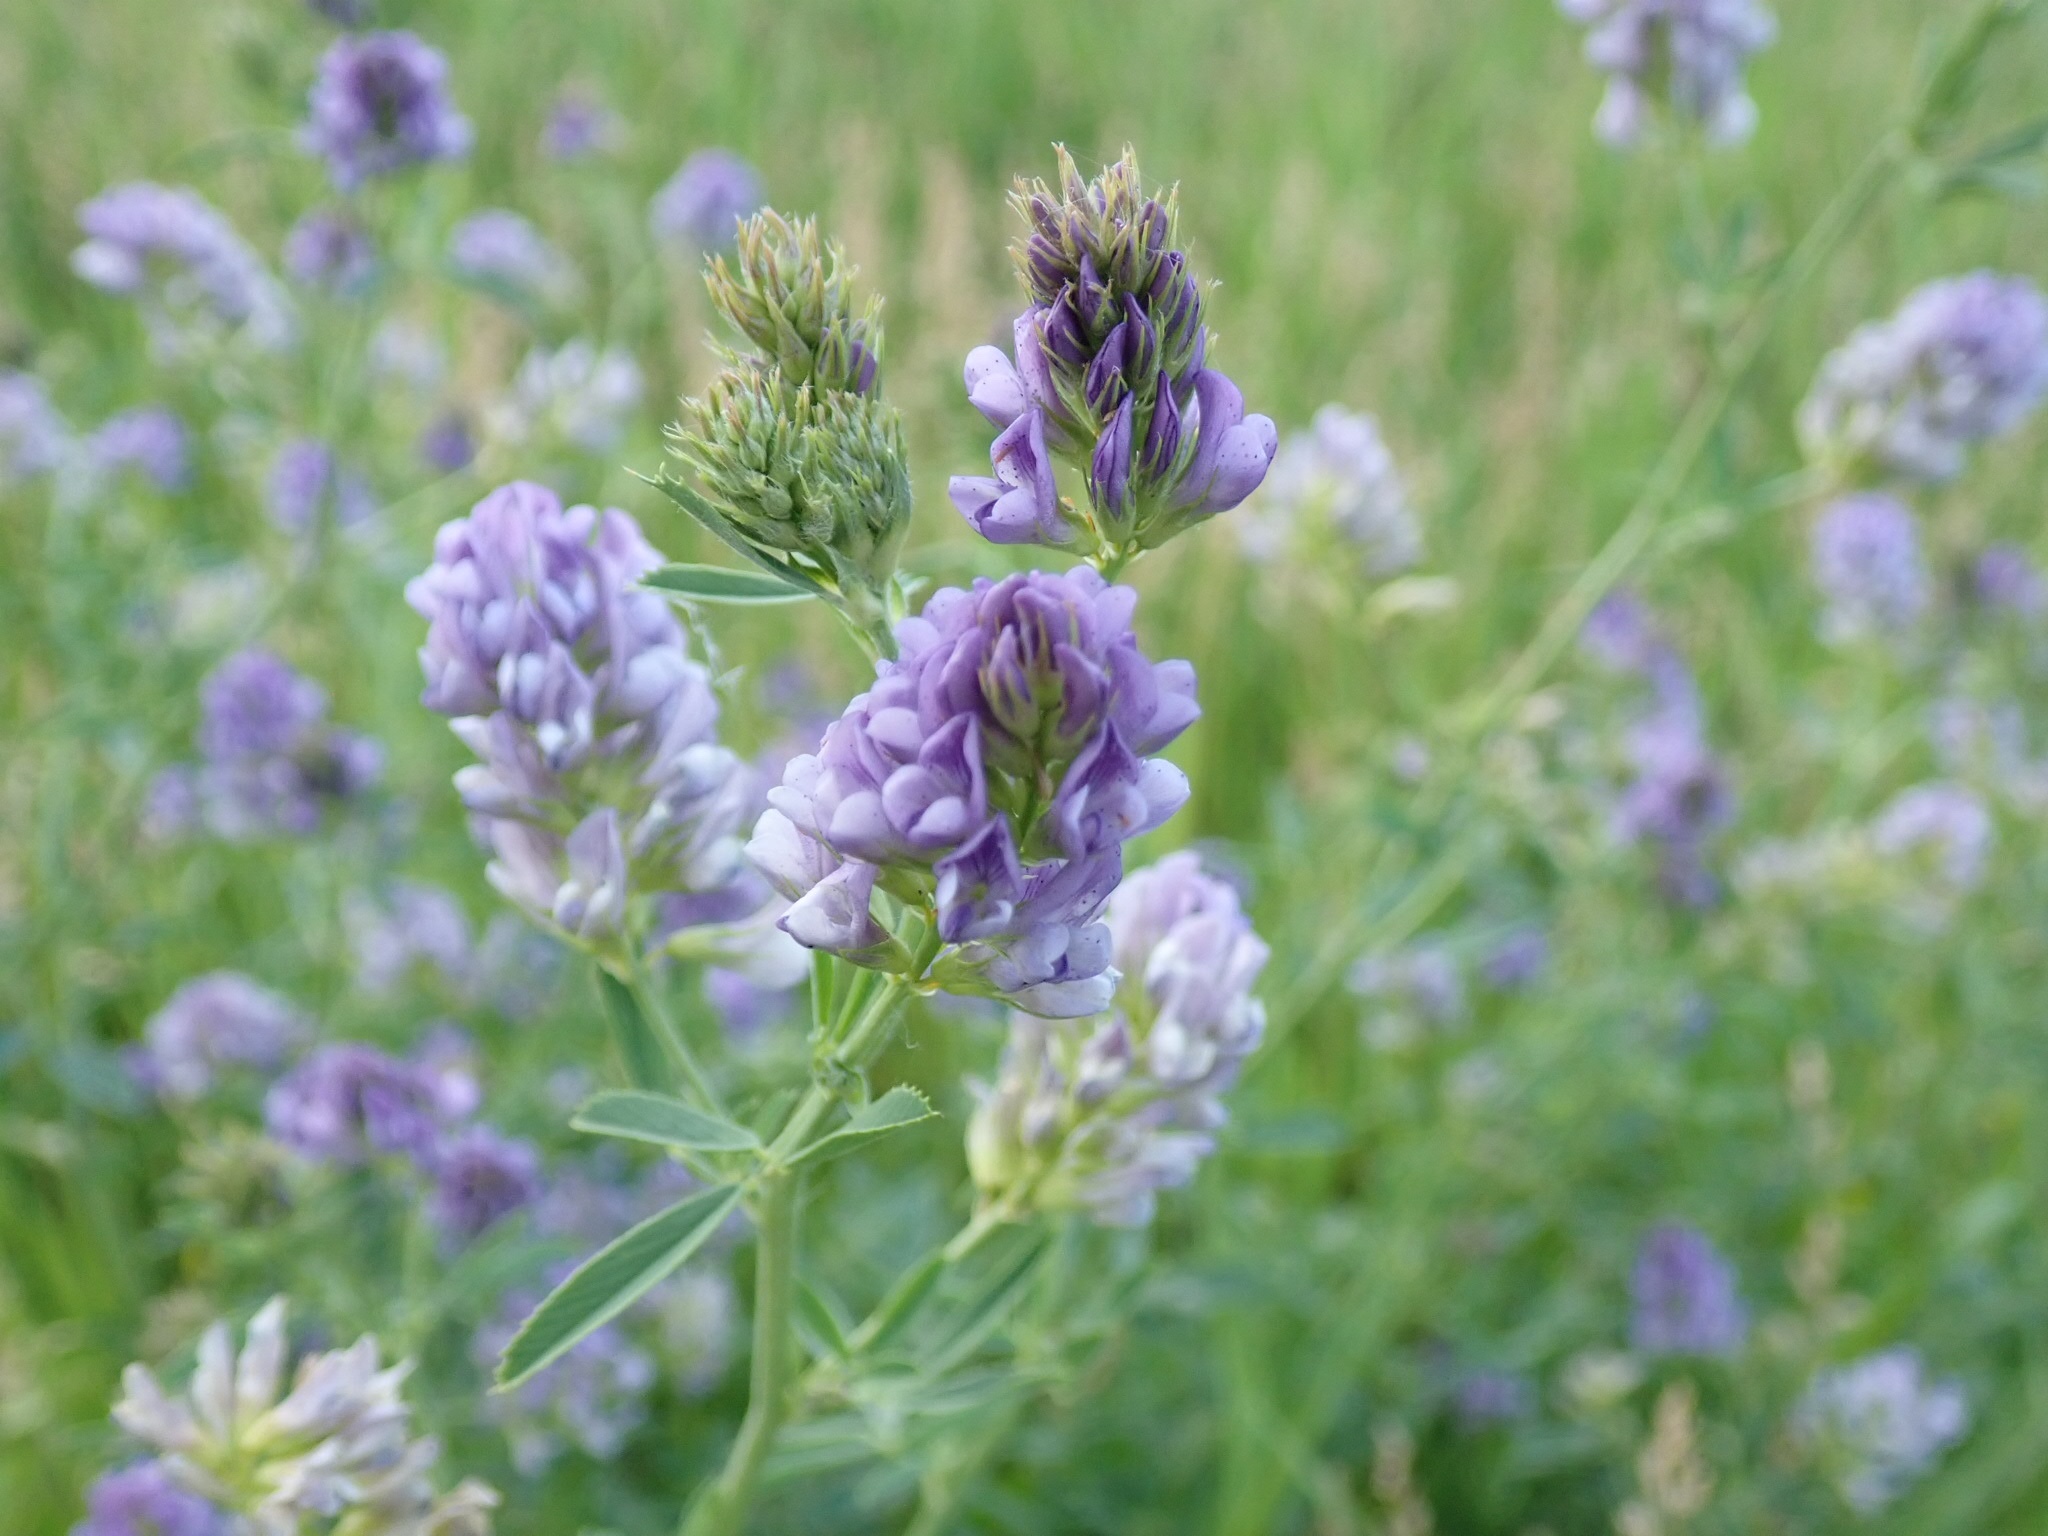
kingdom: Plantae
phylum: Tracheophyta
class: Magnoliopsida
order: Fabales
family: Fabaceae
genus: Medicago
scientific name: Medicago sativa
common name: Alfalfa
